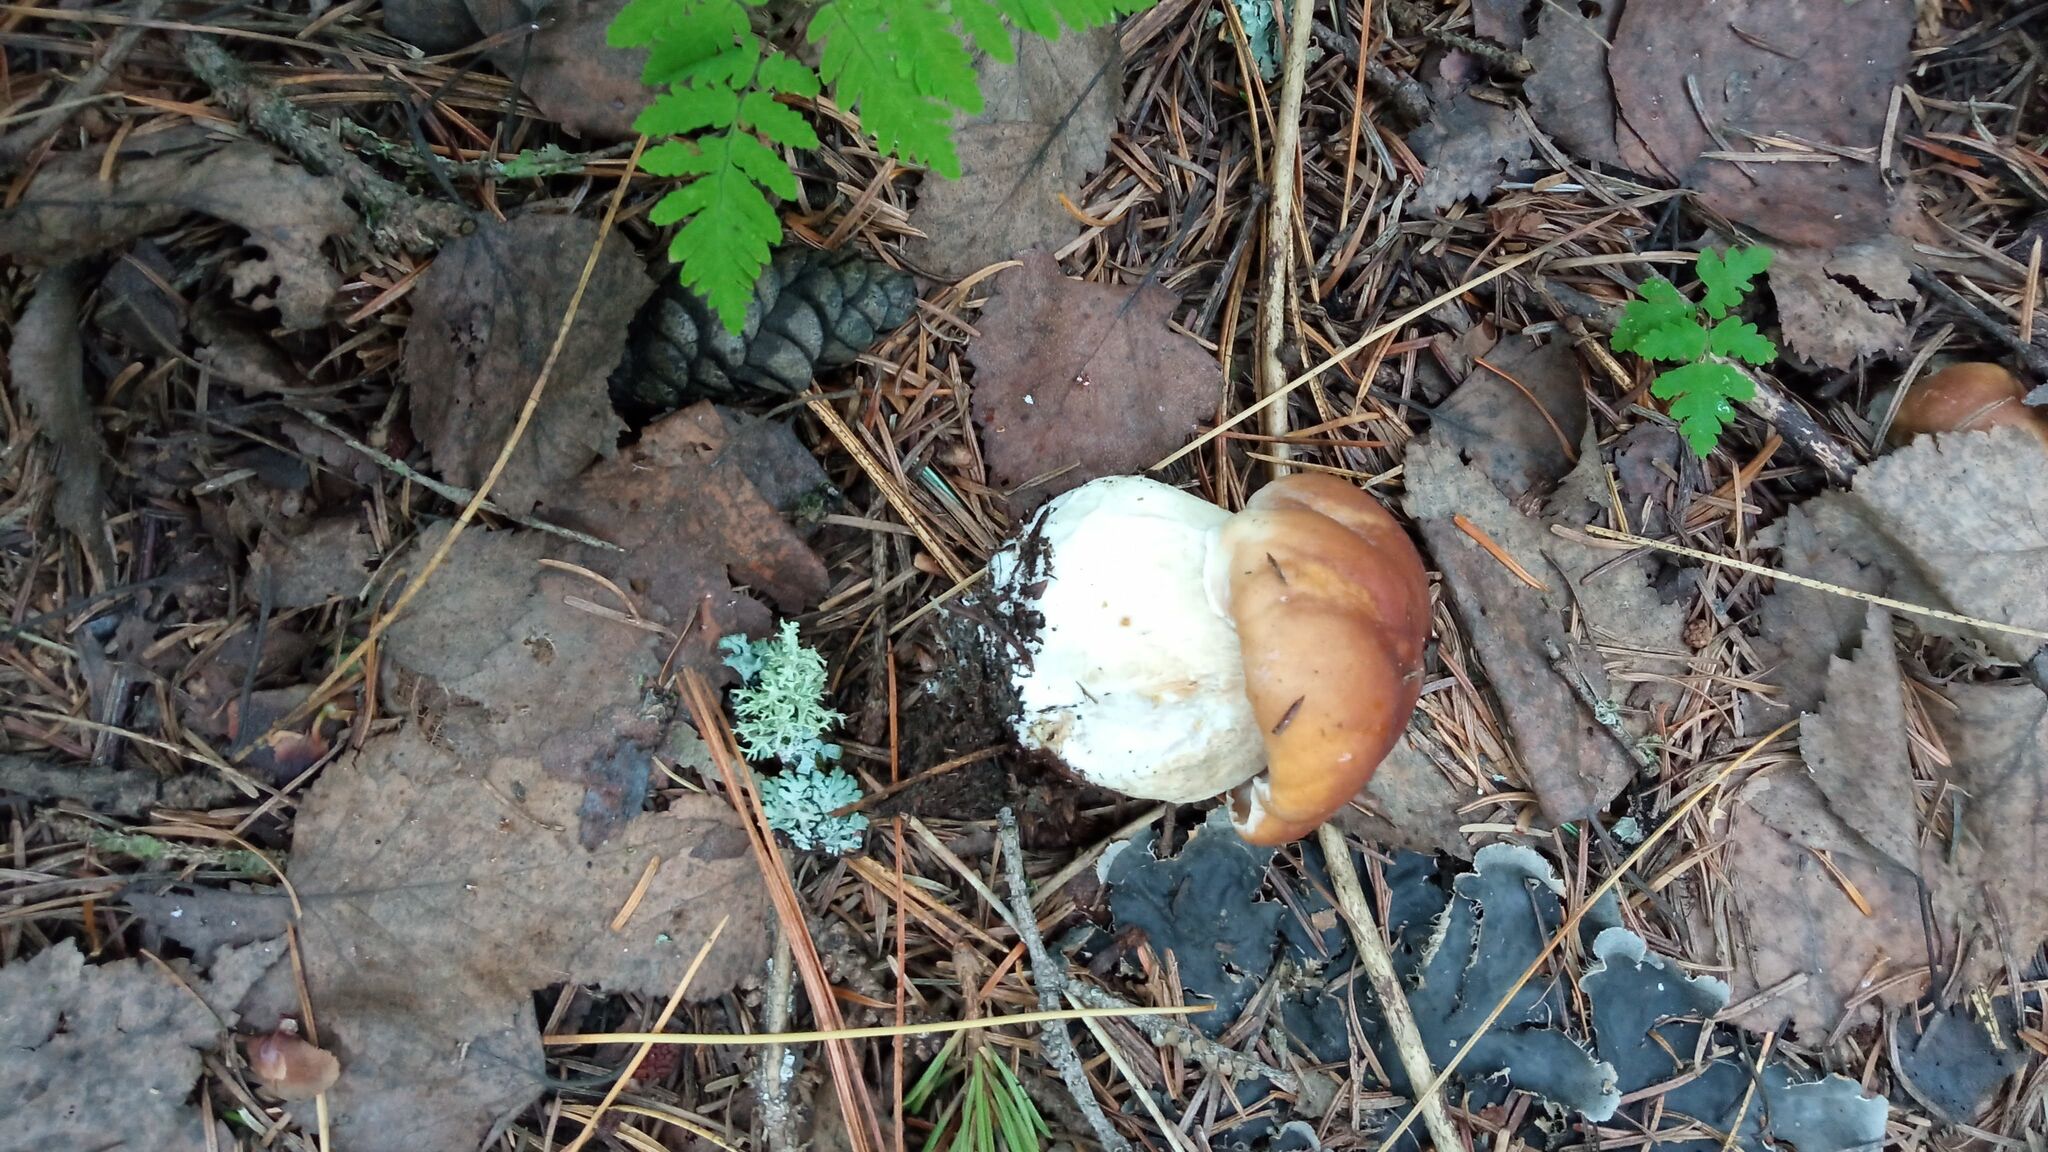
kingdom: Fungi
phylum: Basidiomycota
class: Agaricomycetes
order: Boletales
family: Boletaceae
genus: Boletus
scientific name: Boletus edulis
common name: Cep
